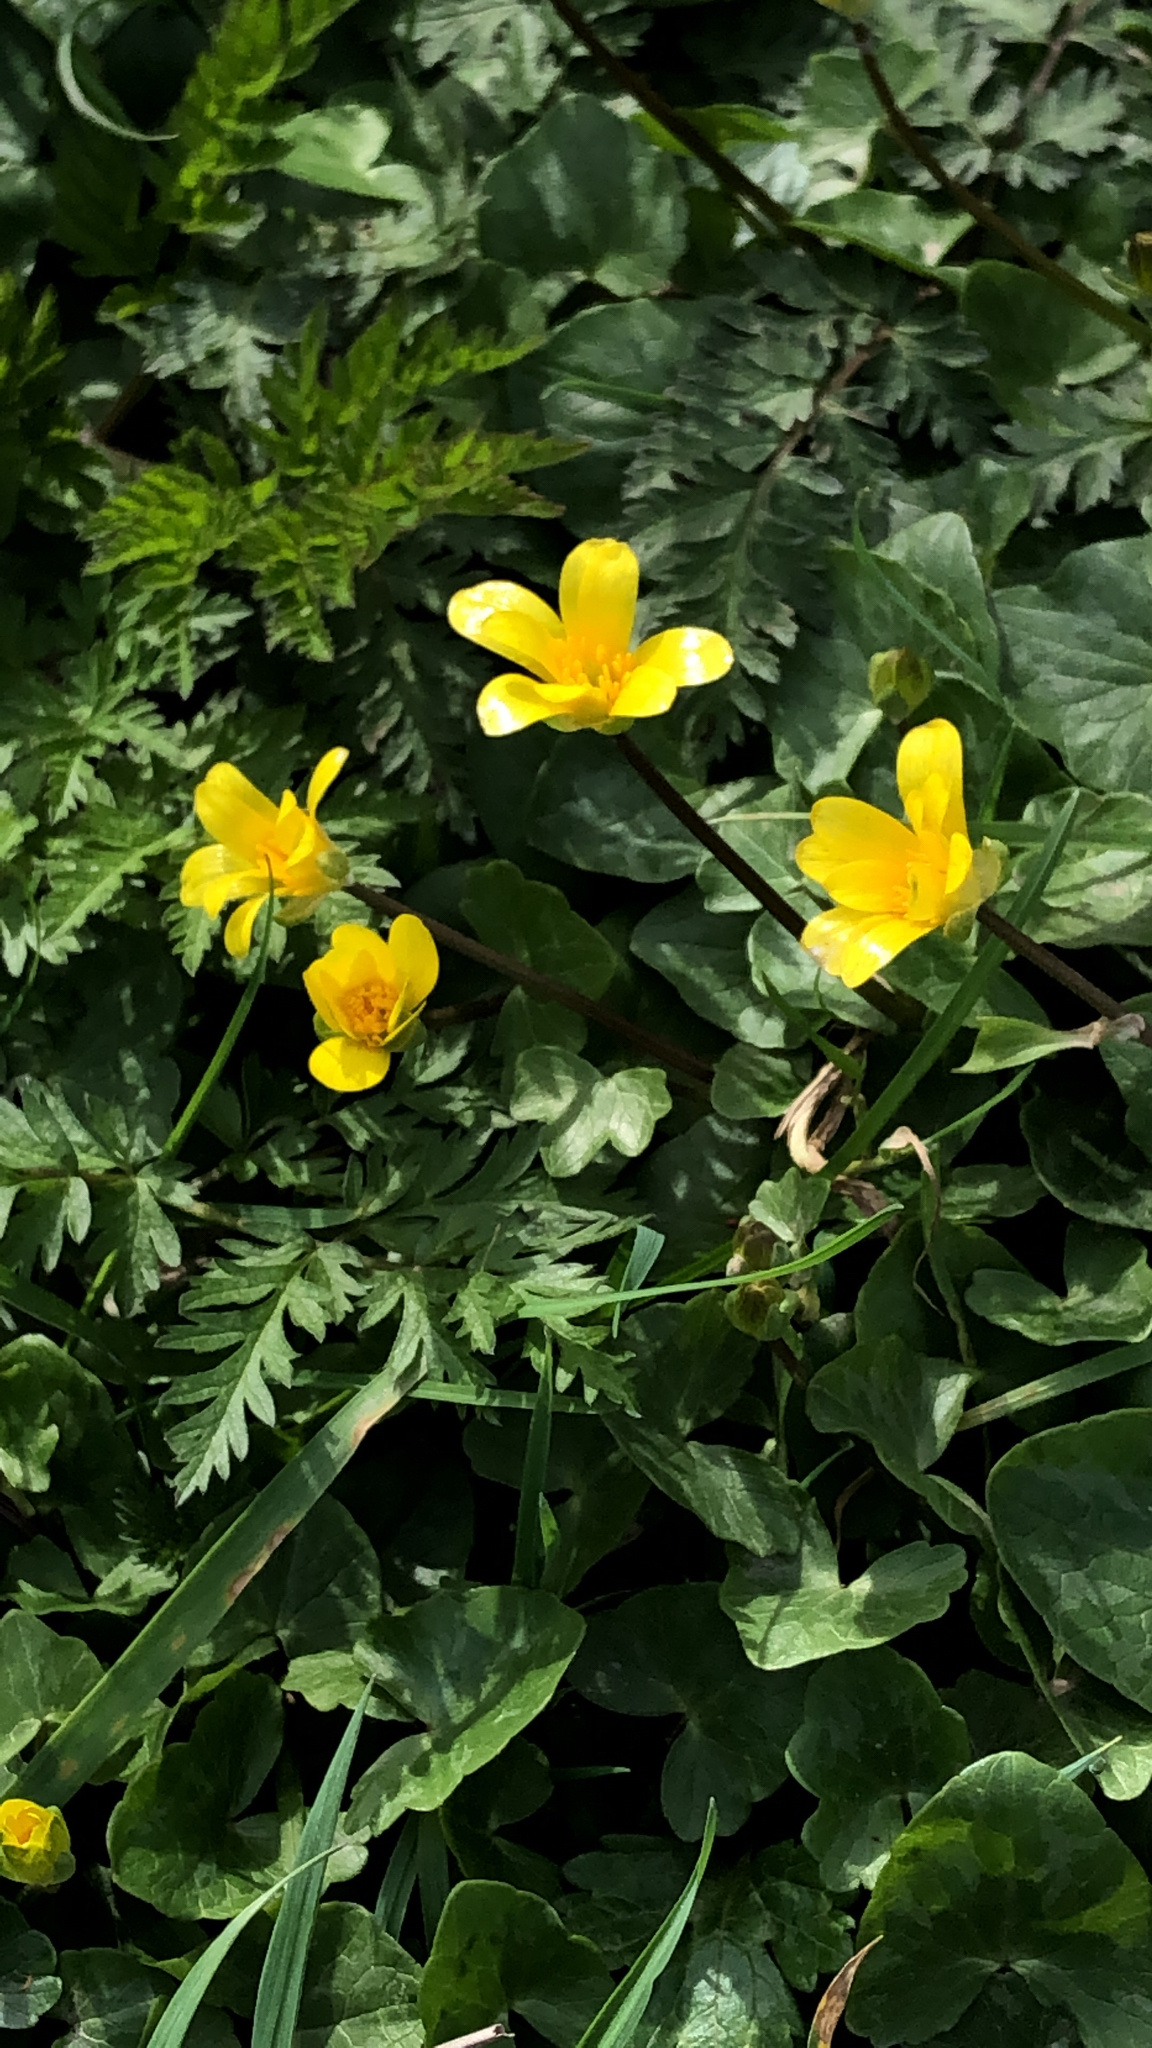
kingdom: Plantae
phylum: Tracheophyta
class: Magnoliopsida
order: Ranunculales
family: Ranunculaceae
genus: Ficaria
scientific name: Ficaria verna
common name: Lesser celandine
